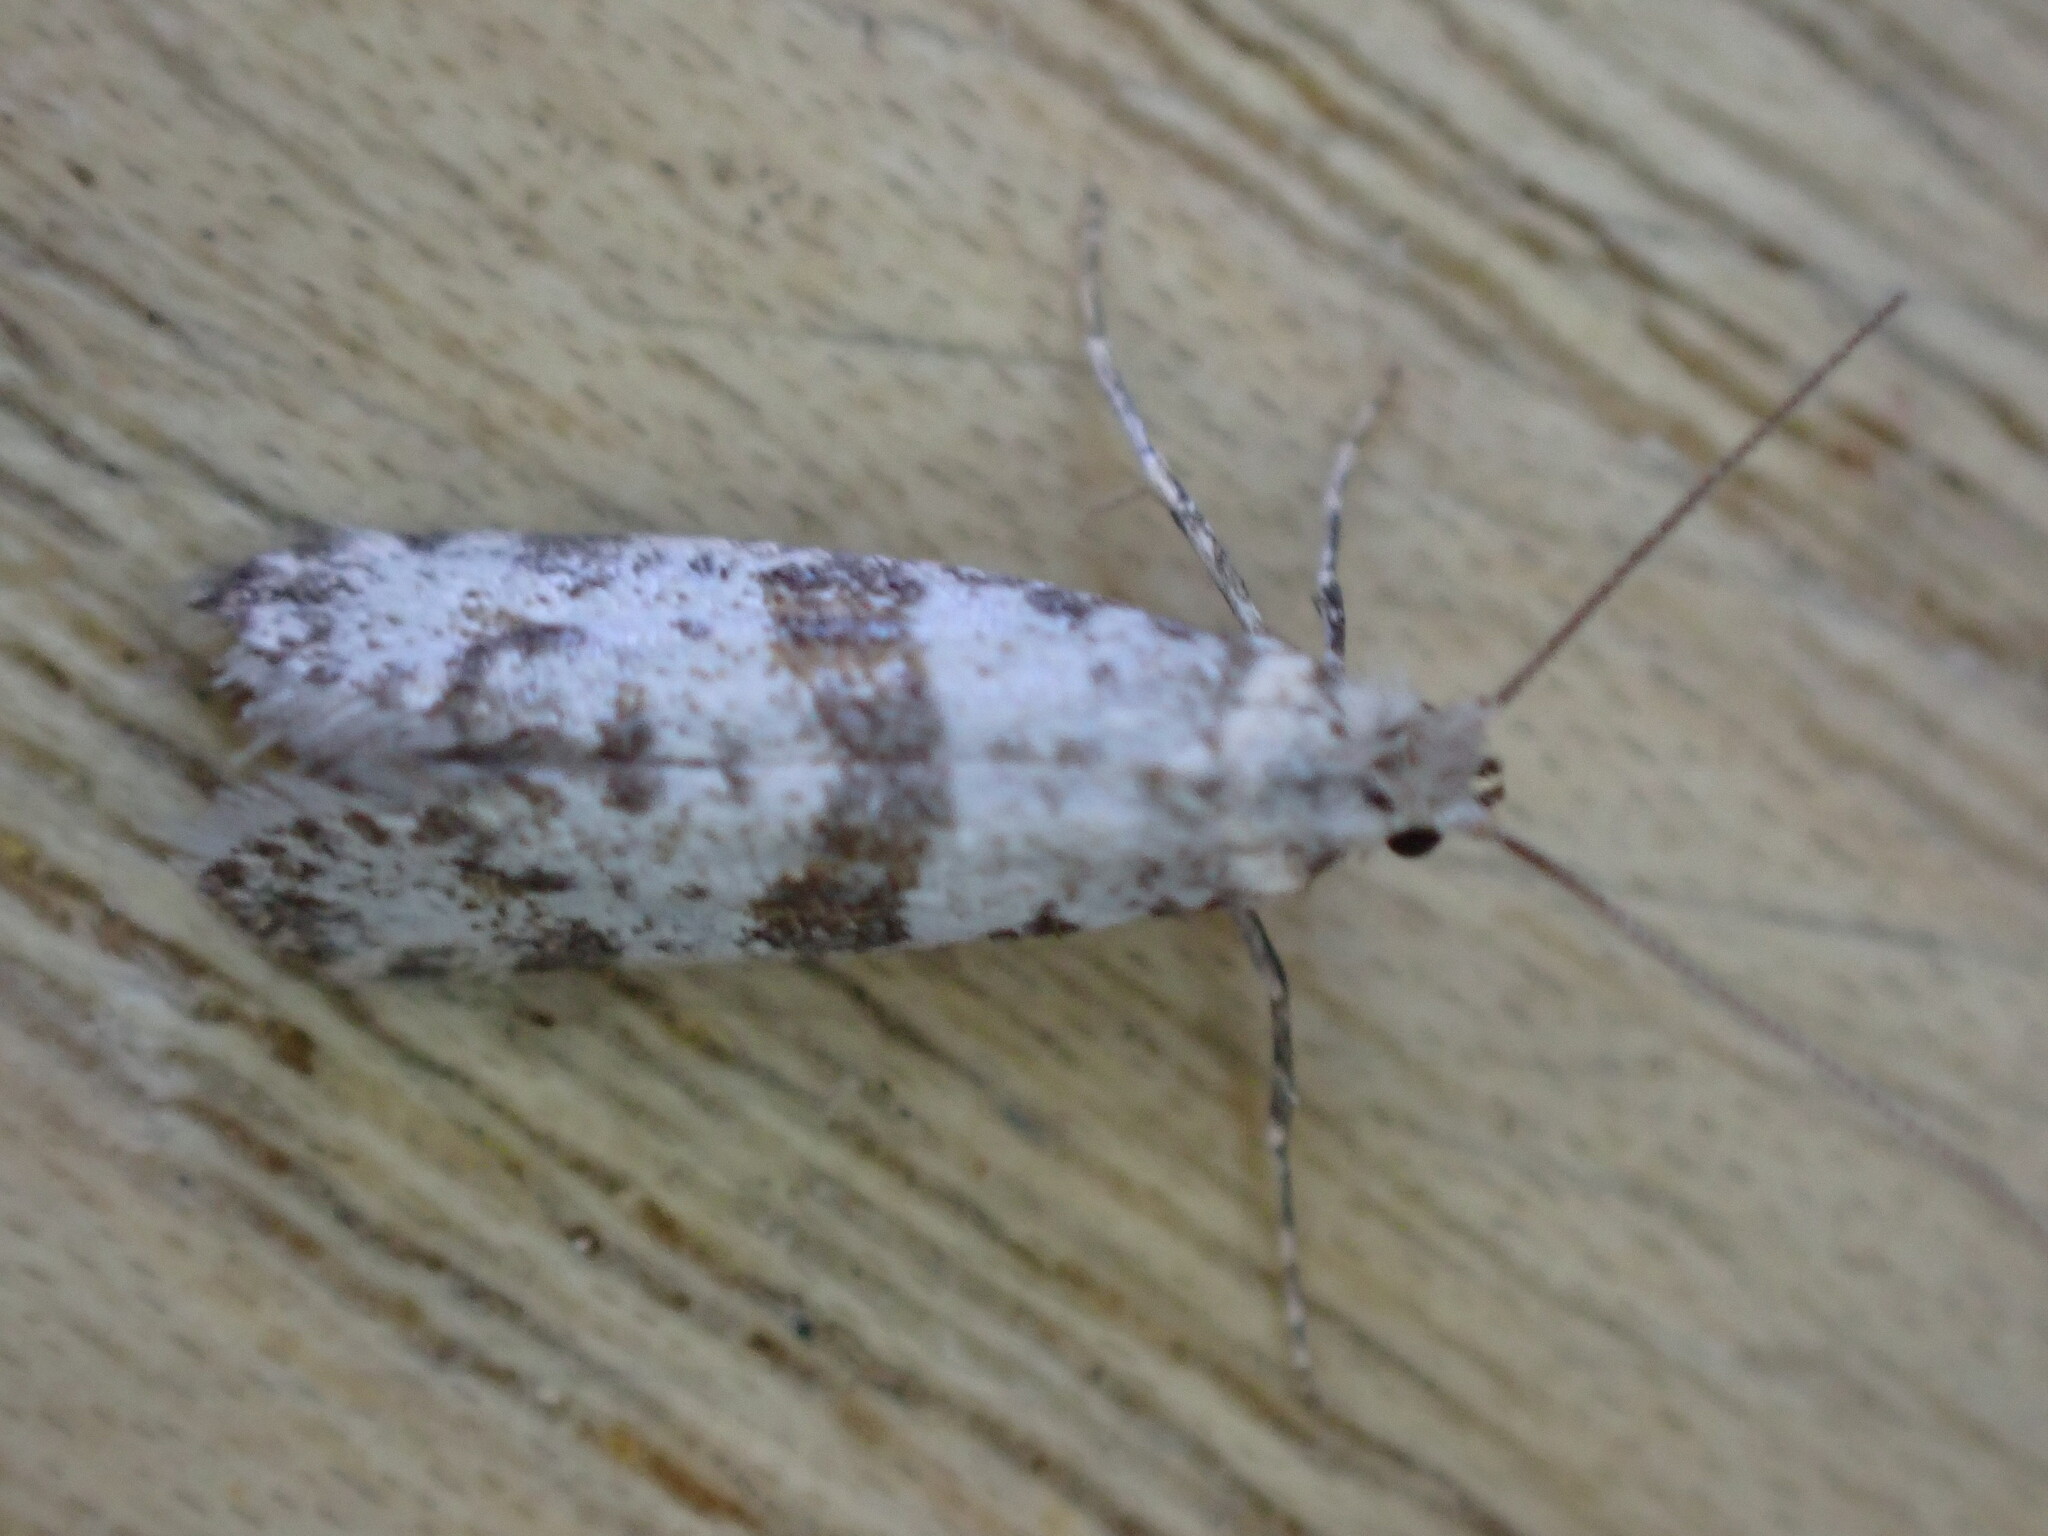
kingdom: Animalia
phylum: Arthropoda
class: Insecta
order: Lepidoptera
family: Yponomeutidae
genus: Scythropia
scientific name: Scythropia crataegella
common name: Hawthorn moth
